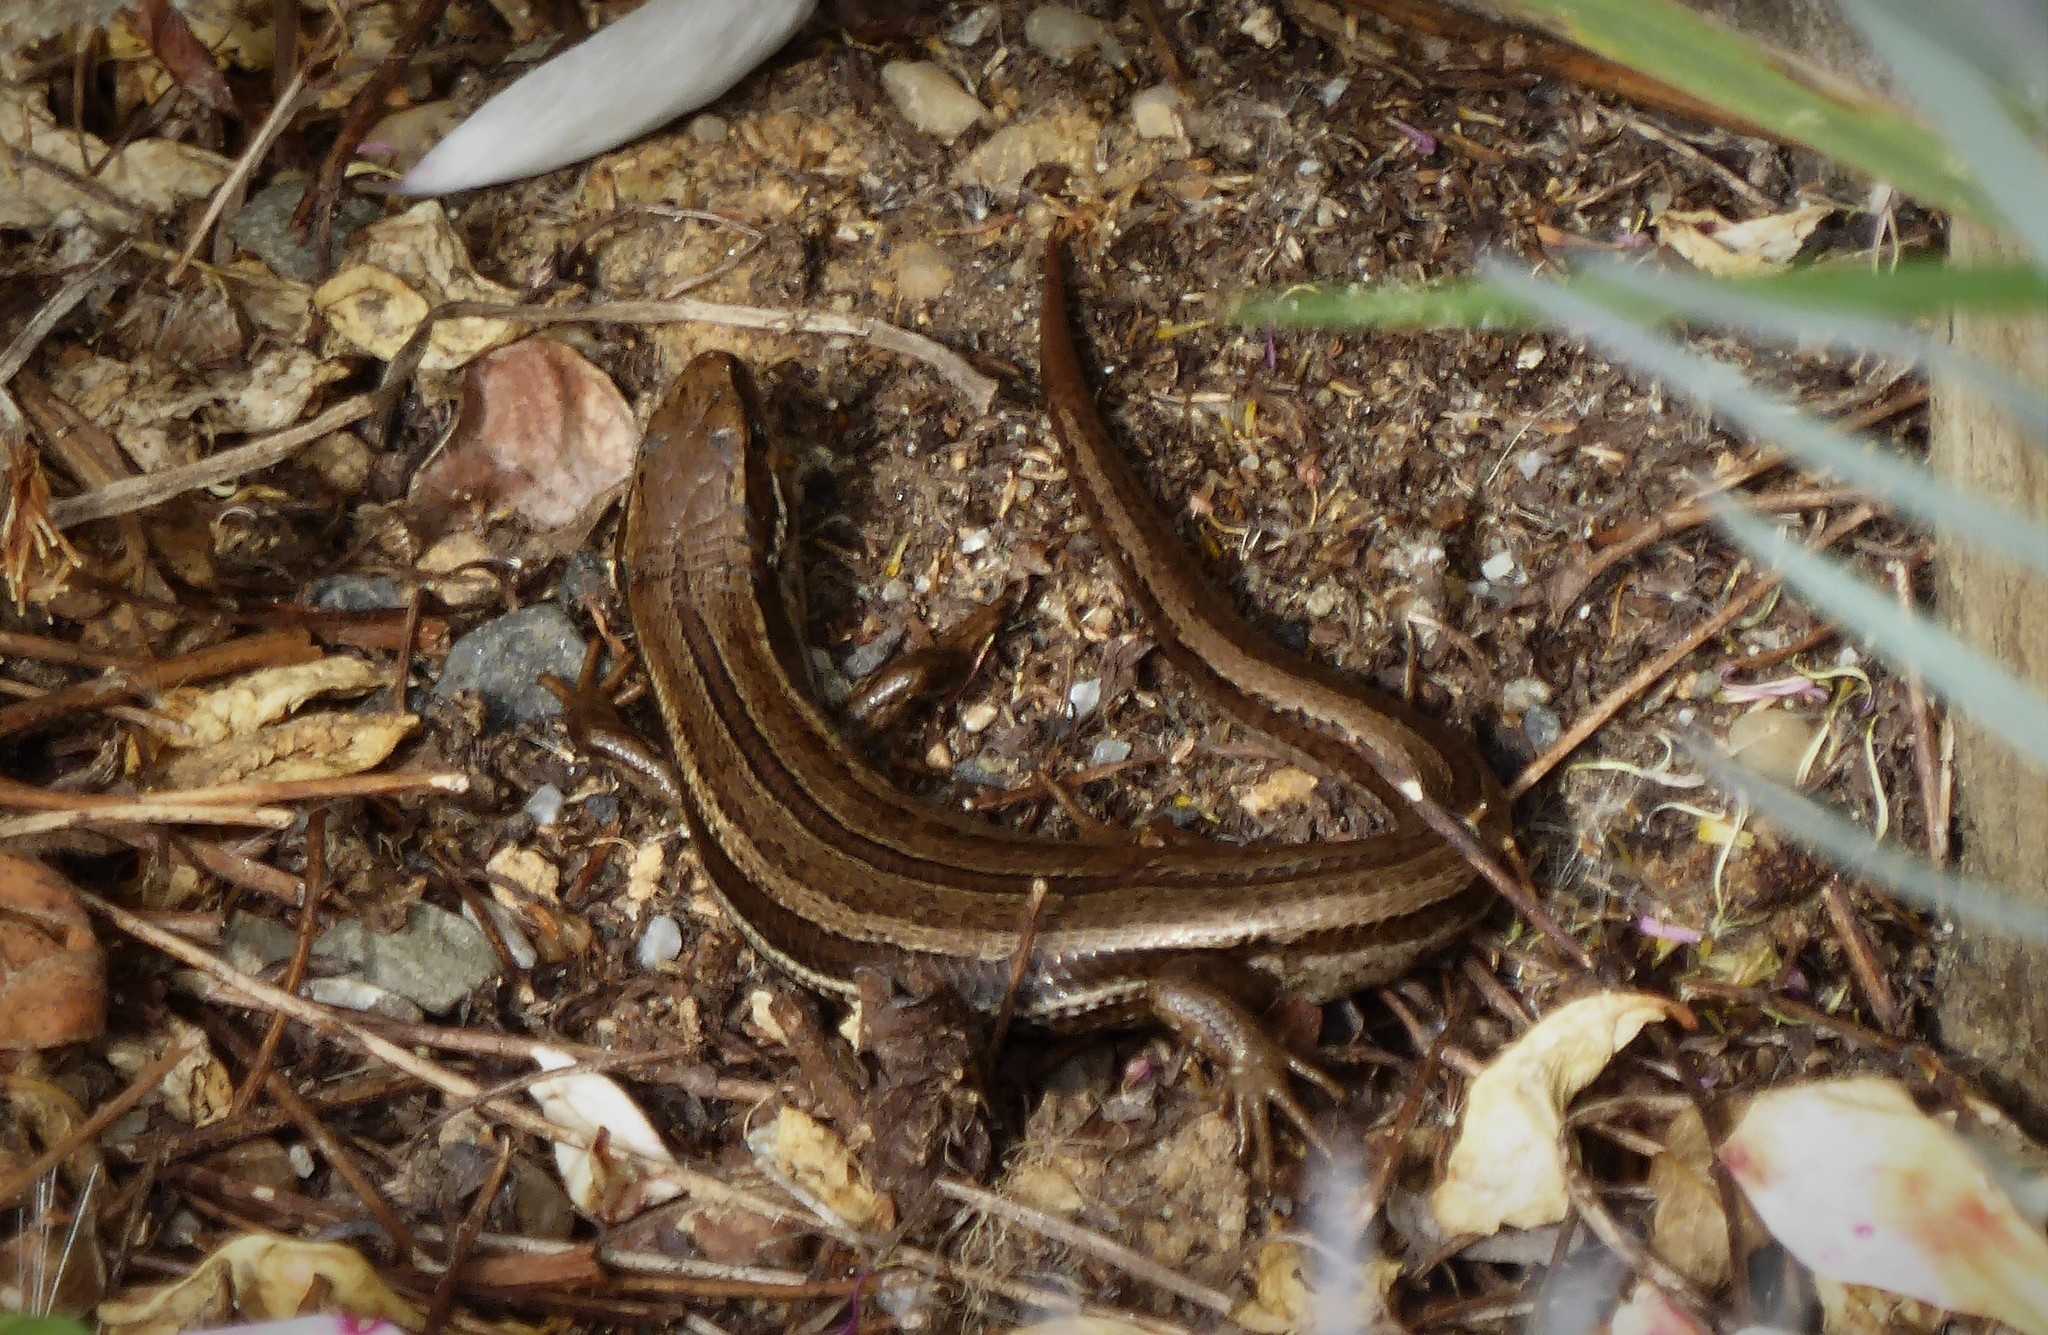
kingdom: Animalia
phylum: Chordata
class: Squamata
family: Scincidae
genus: Oligosoma
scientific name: Oligosoma polychroma
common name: Common new zealand skink
